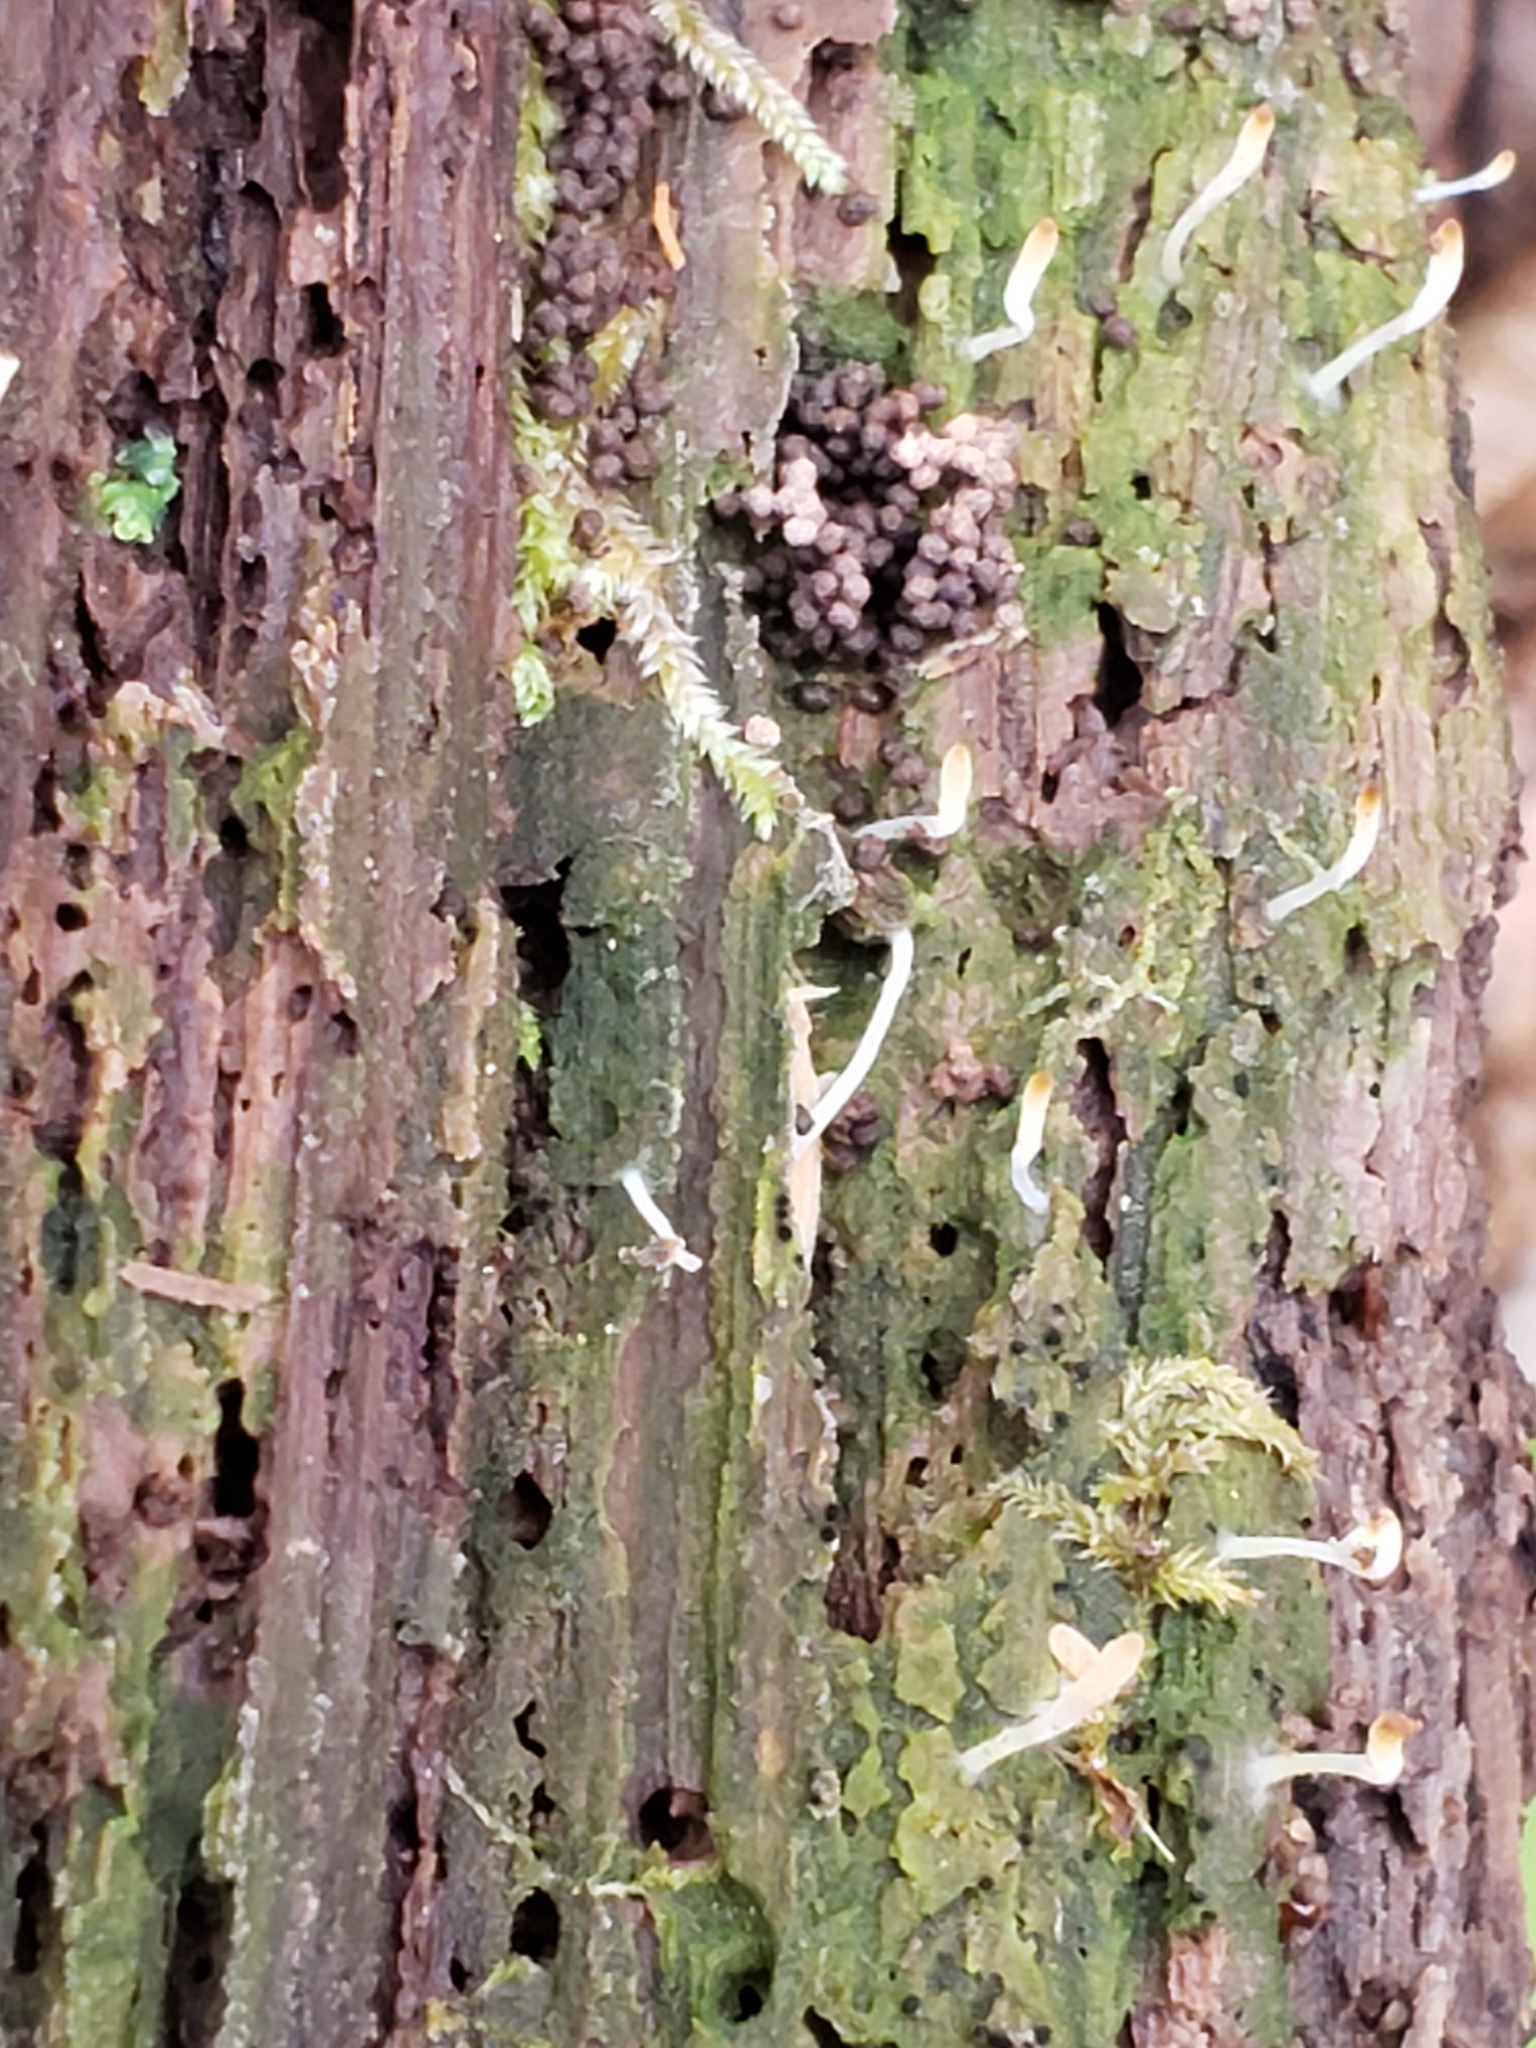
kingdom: Fungi
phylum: Basidiomycota
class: Agaricomycetes
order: Cantharellales
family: Hydnaceae
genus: Multiclavula
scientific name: Multiclavula mucida
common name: White green-algae coral
